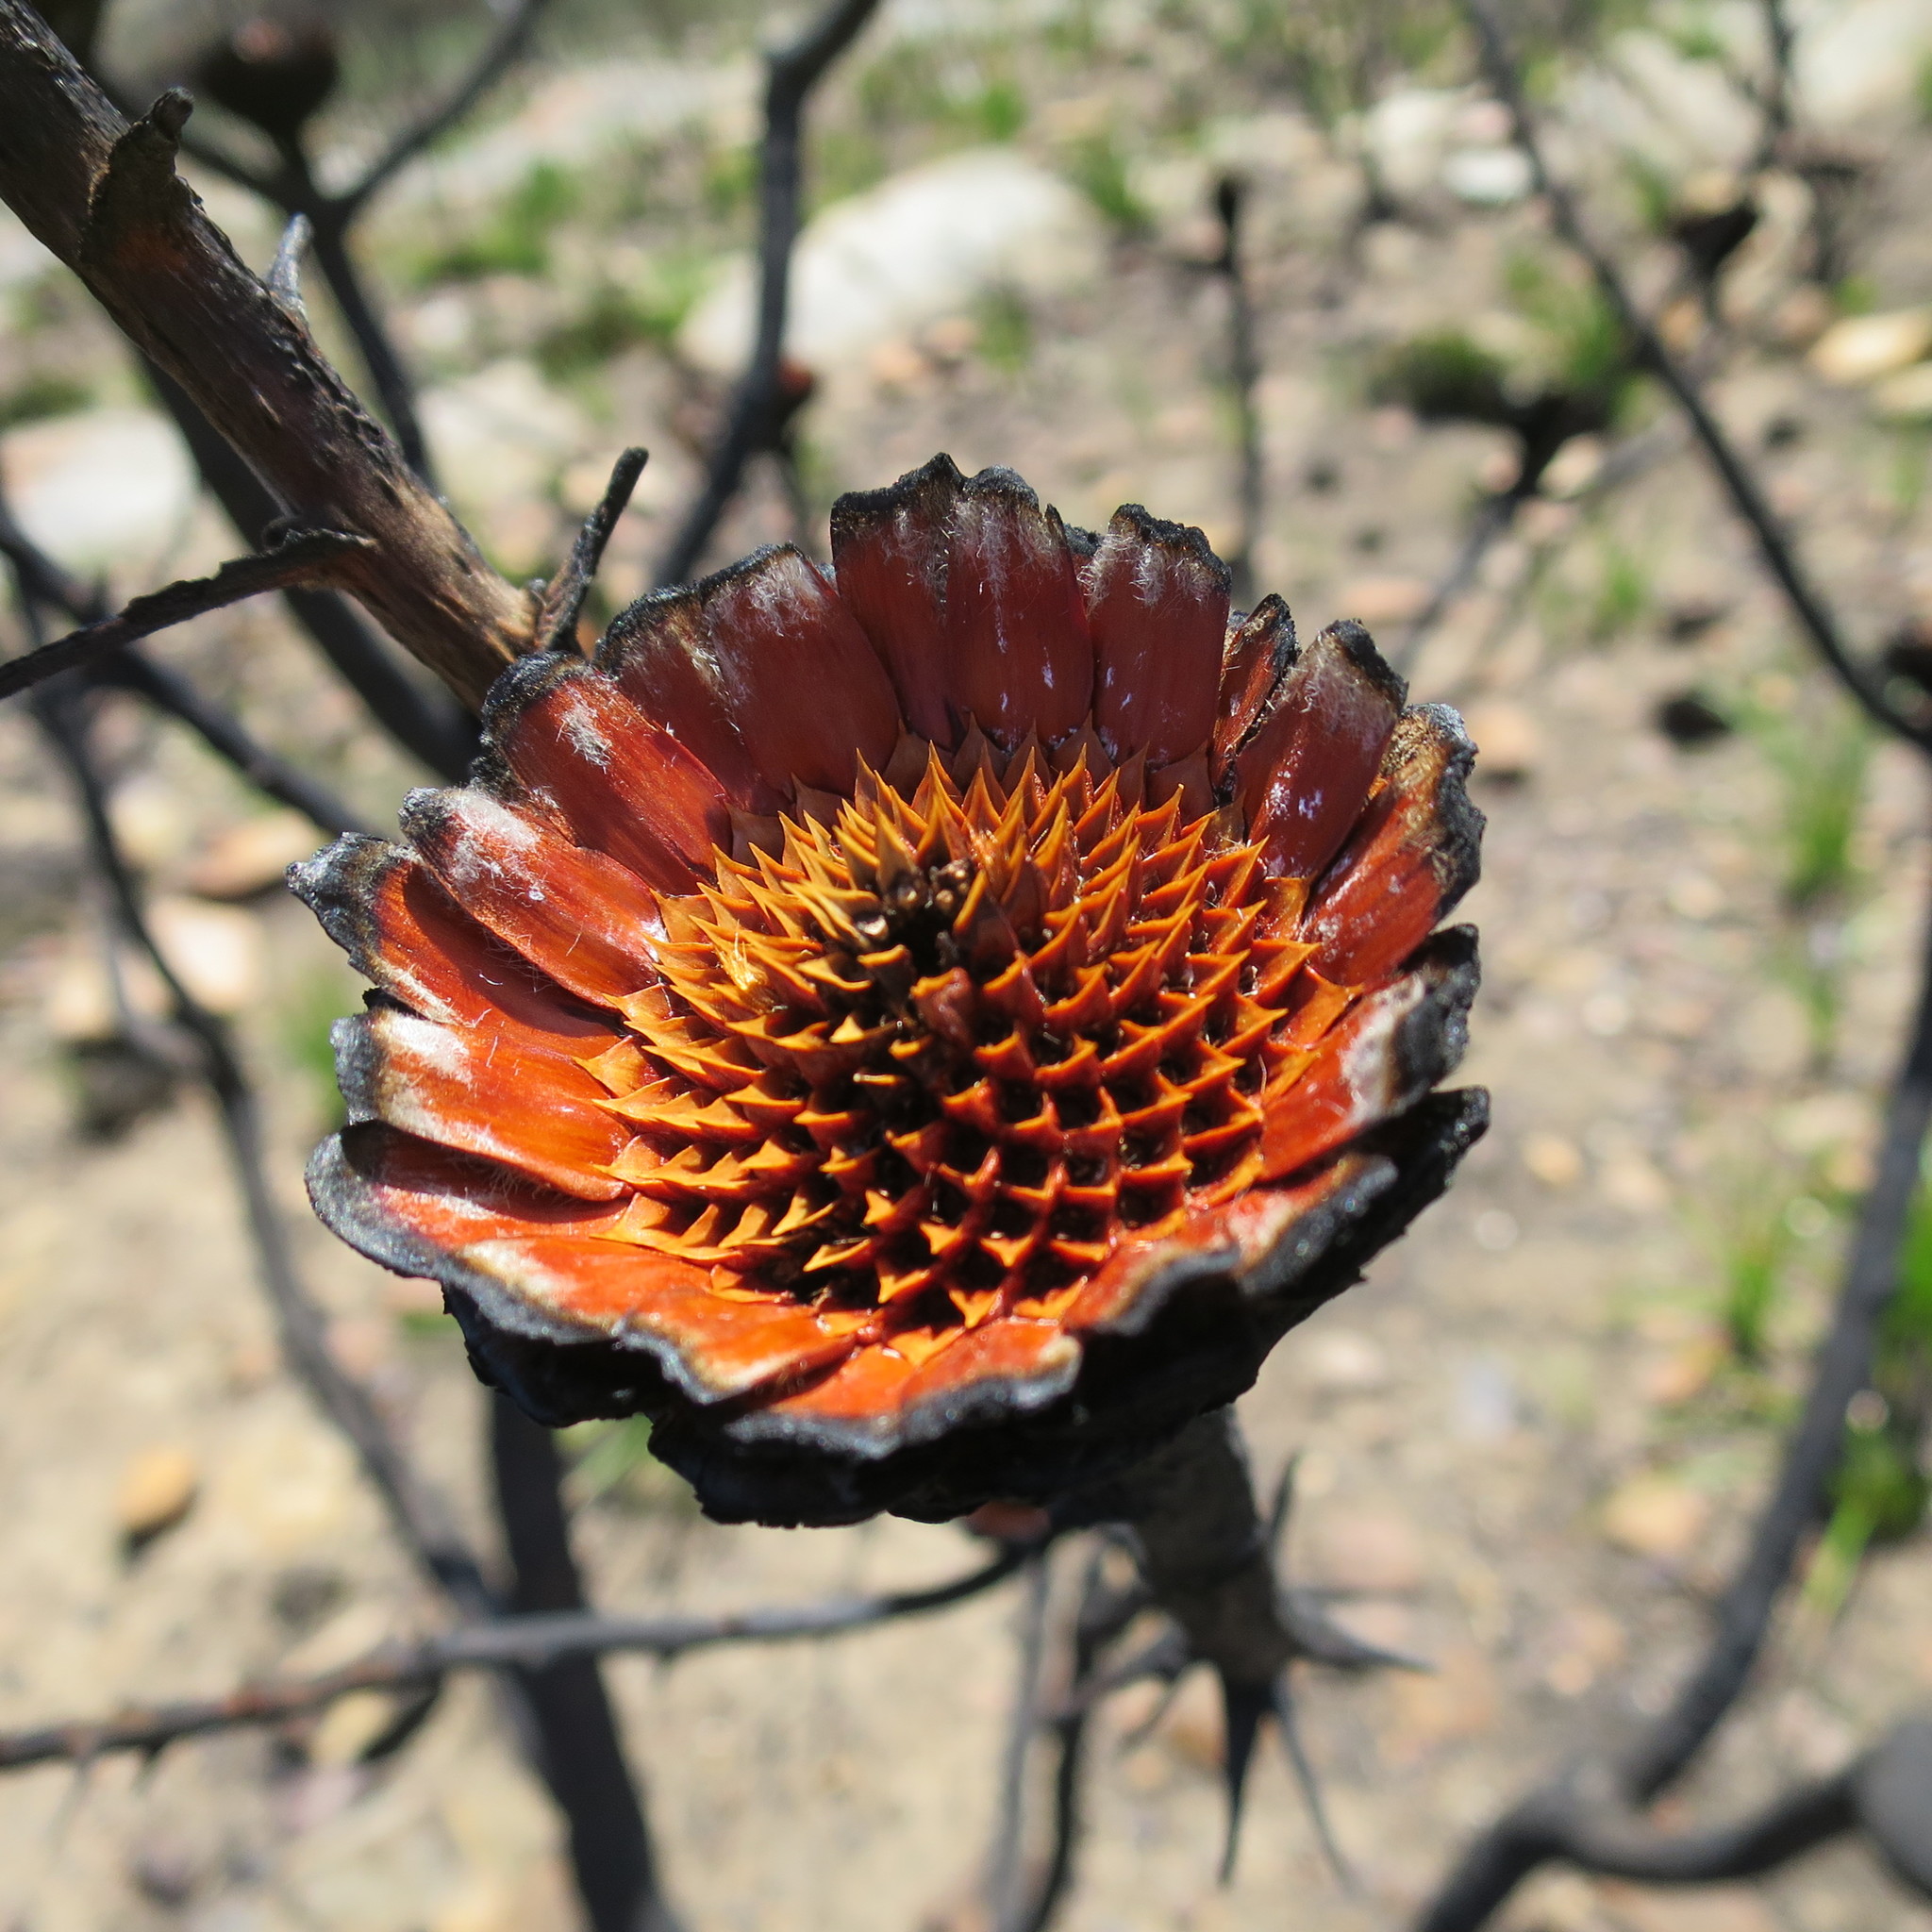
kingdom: Plantae
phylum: Tracheophyta
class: Magnoliopsida
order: Proteales
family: Proteaceae
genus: Protea
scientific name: Protea neriifolia
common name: Blue sugarbush
